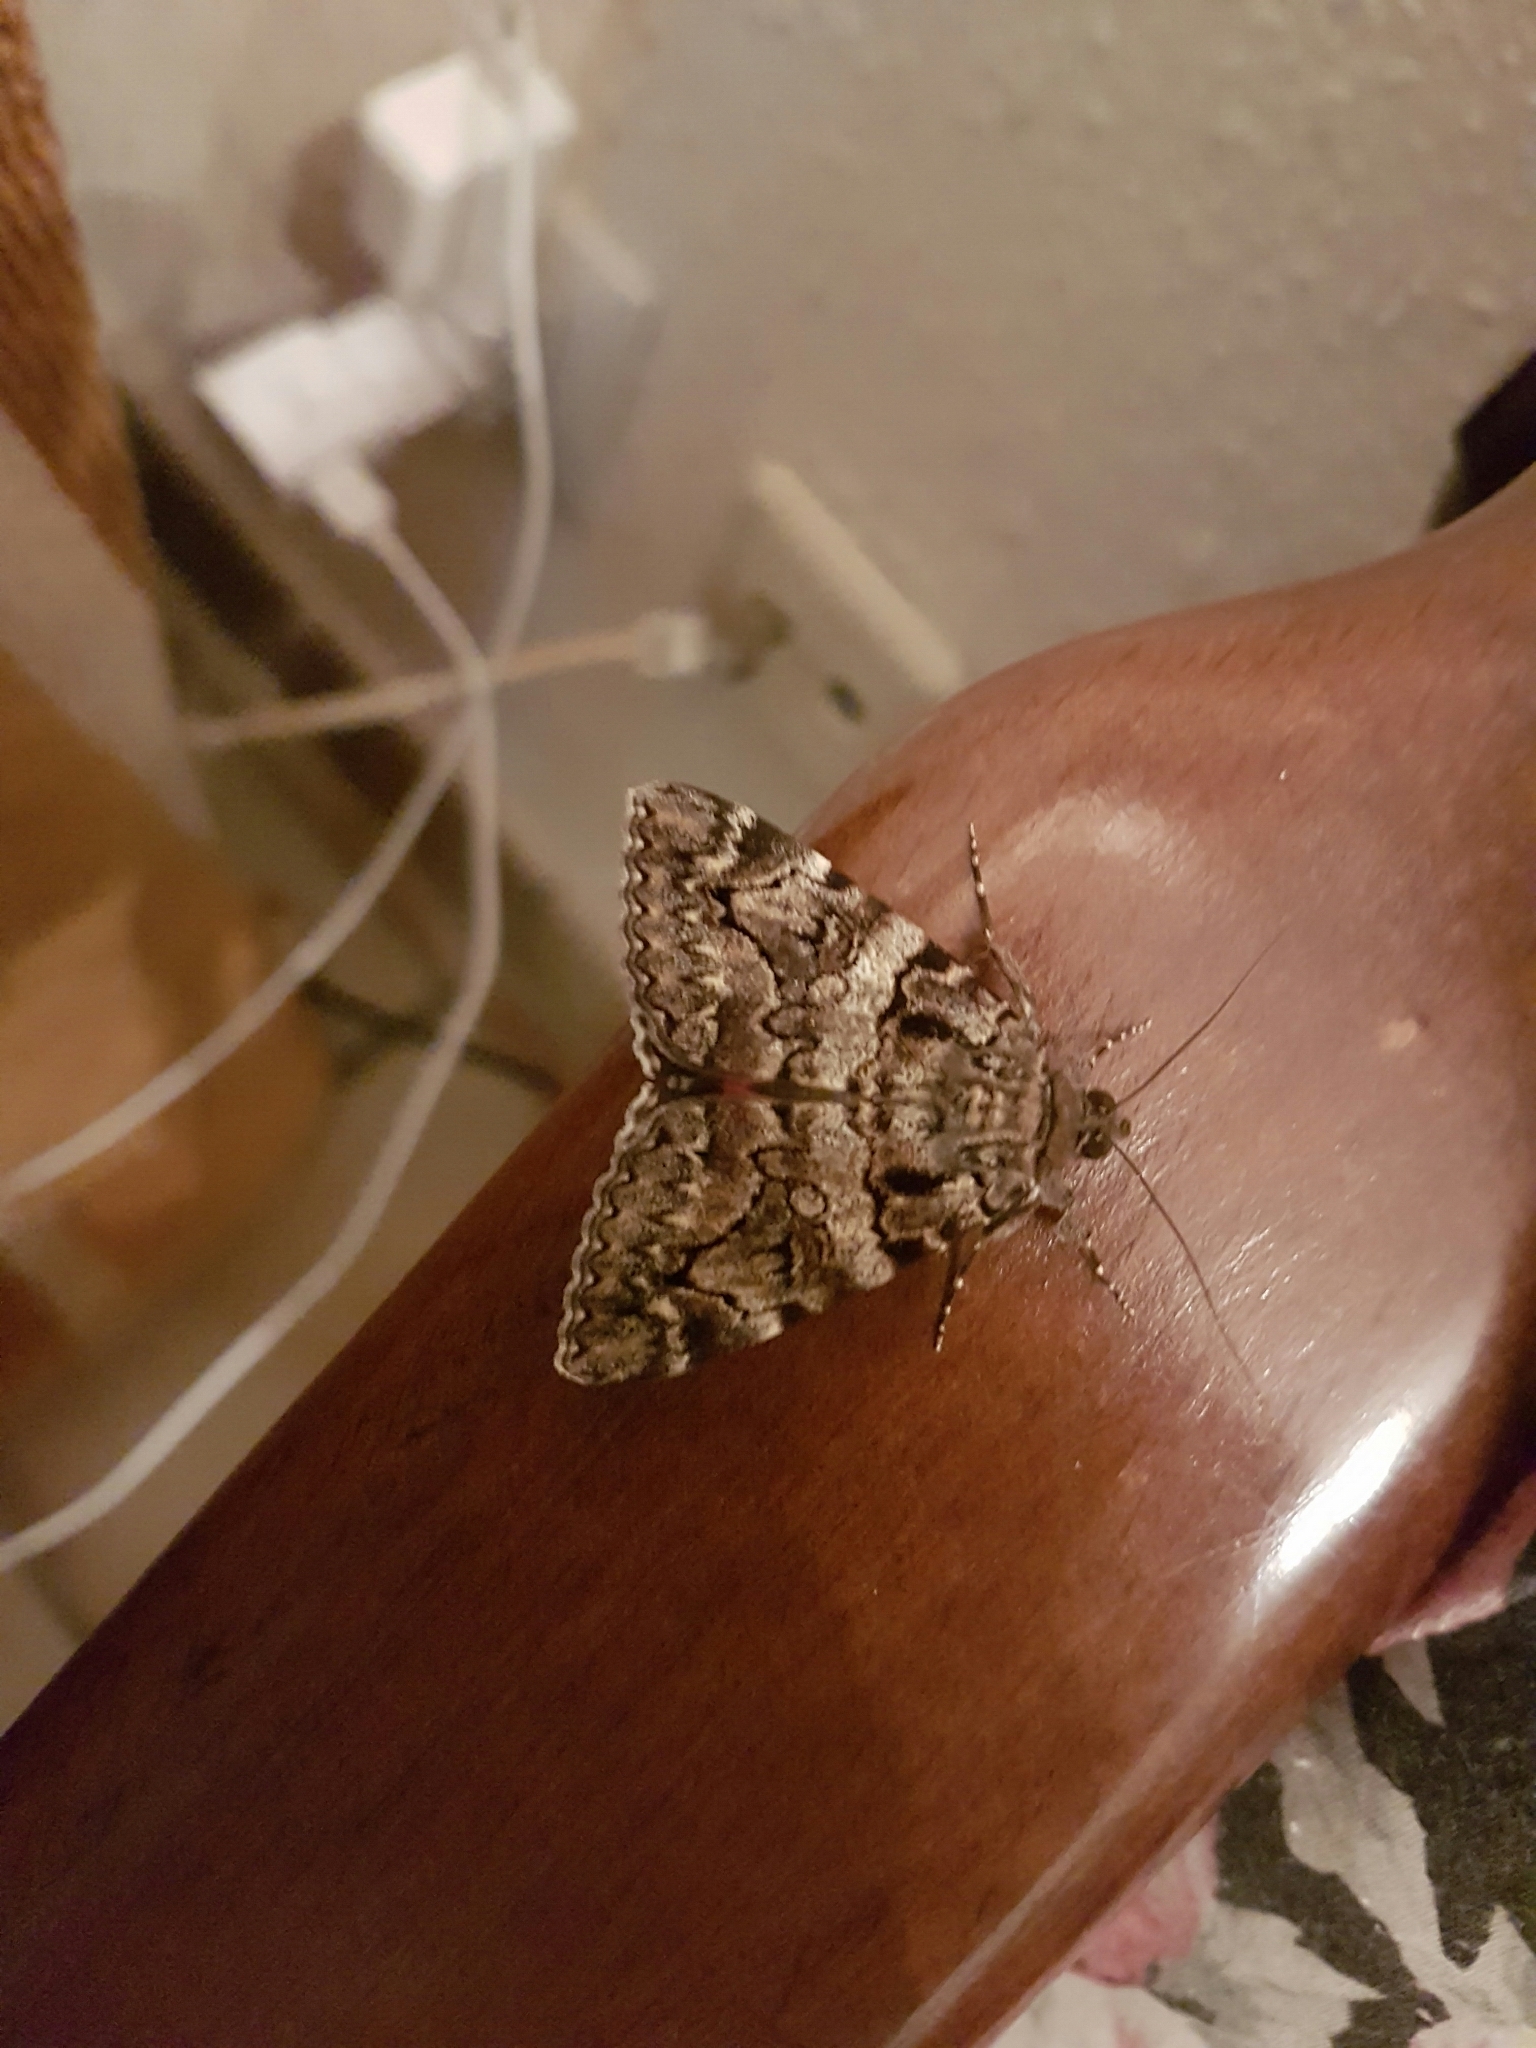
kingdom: Animalia
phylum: Arthropoda
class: Insecta
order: Lepidoptera
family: Erebidae
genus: Catocala
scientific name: Catocala coniuncta
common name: Minsmere crimson underwing
